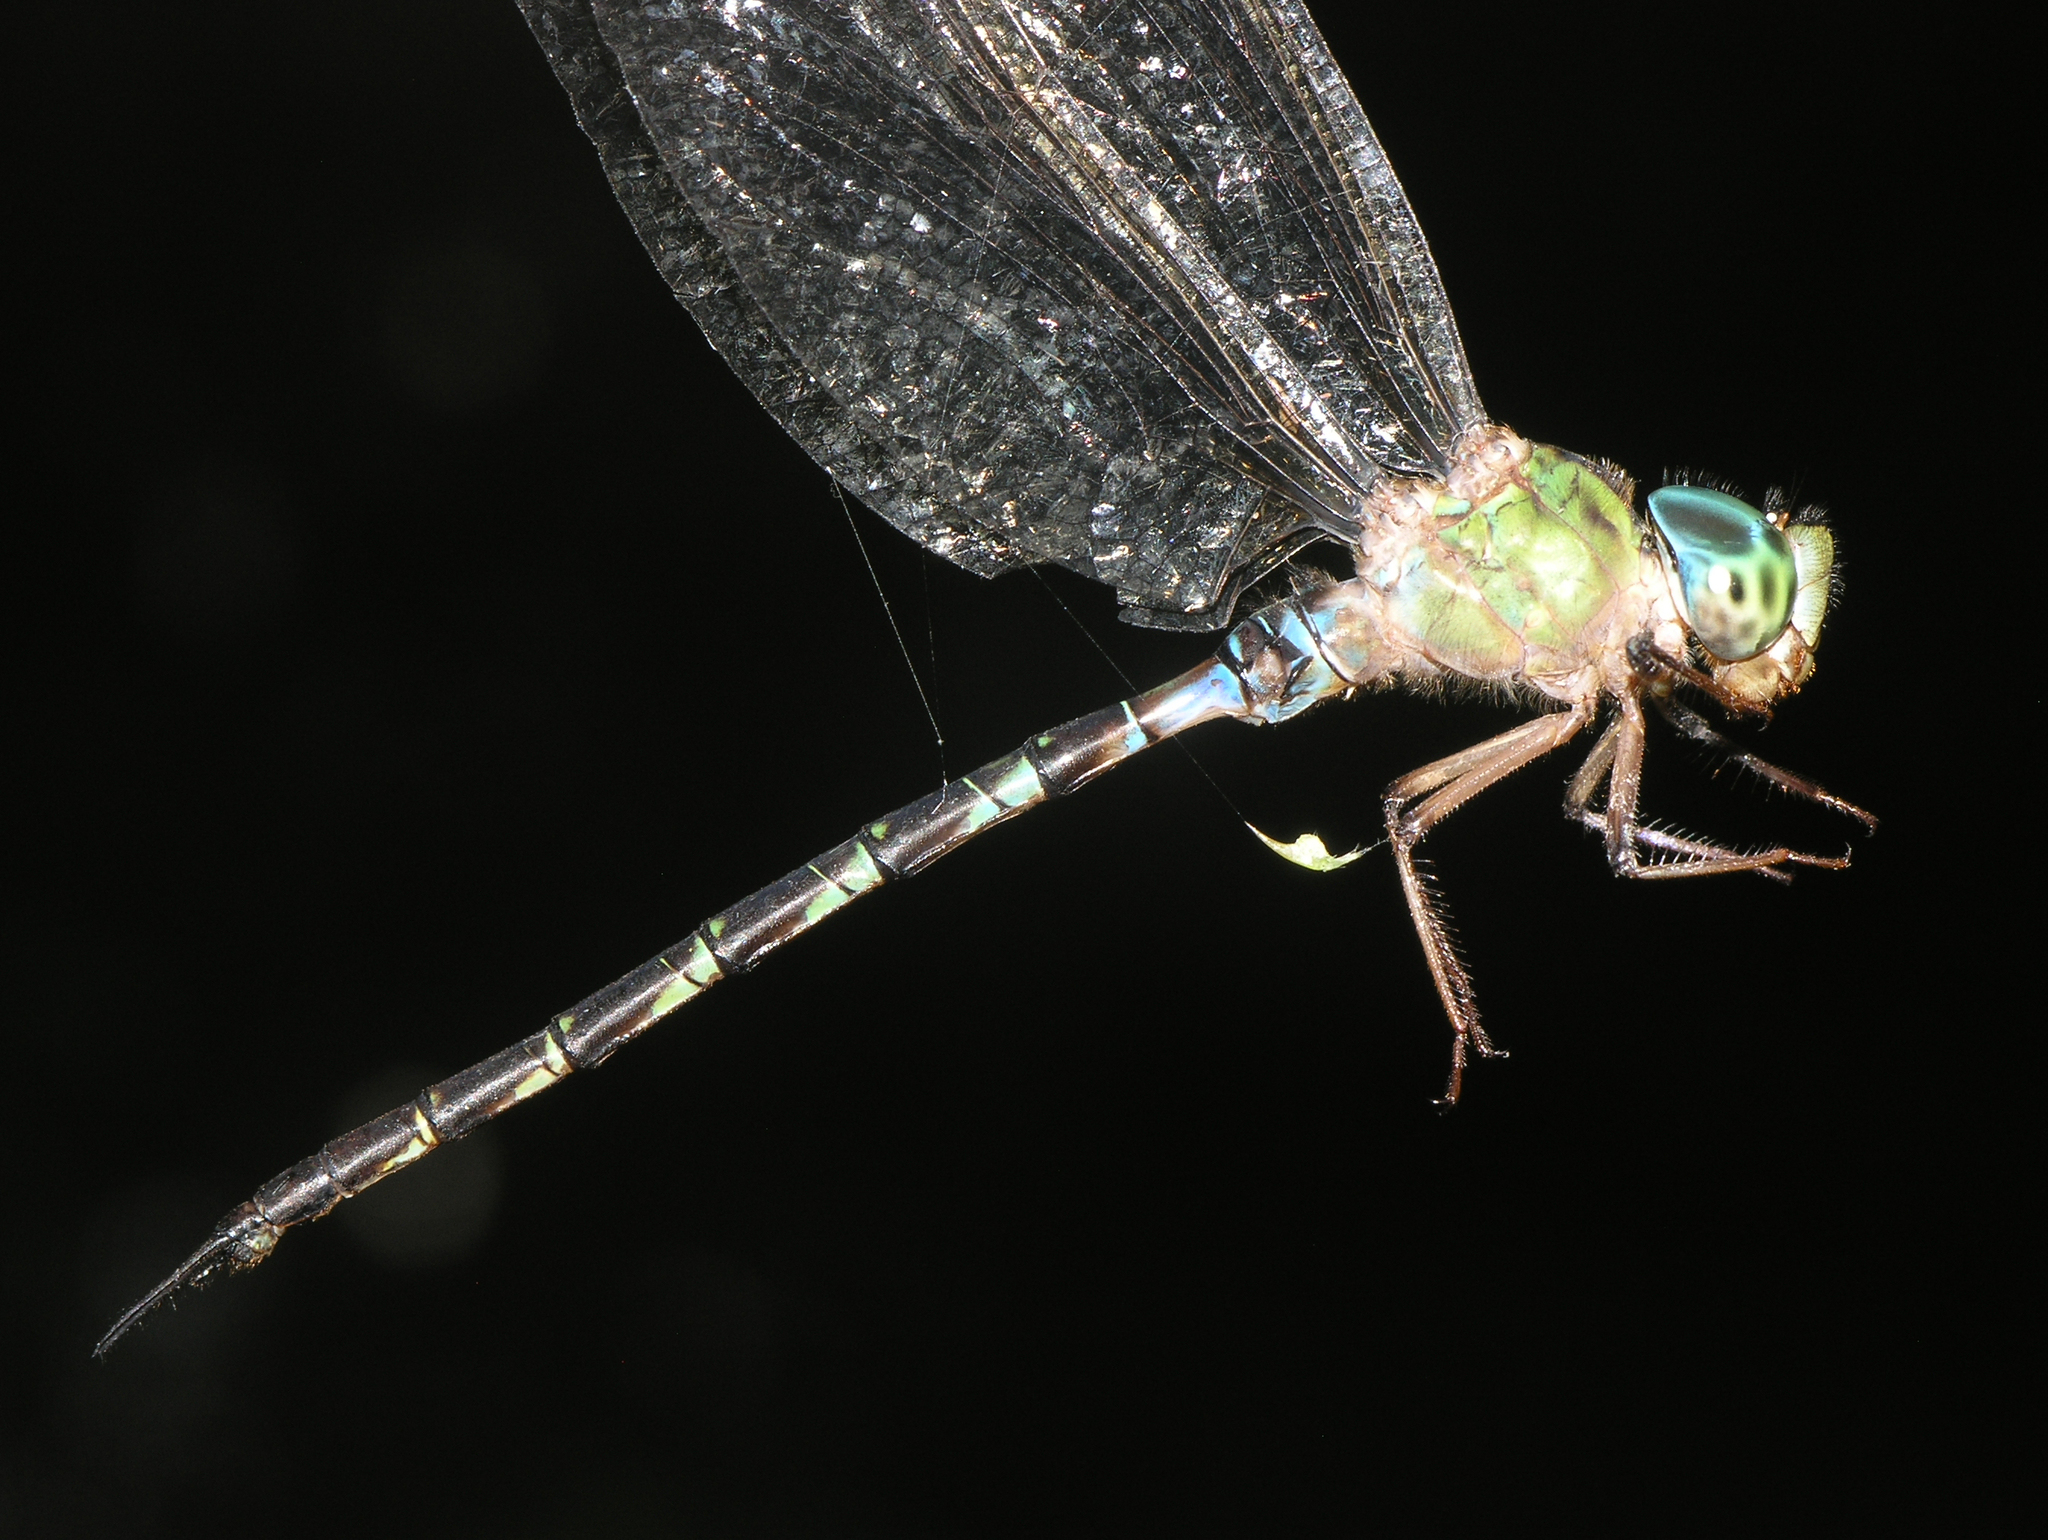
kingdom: Animalia
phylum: Arthropoda
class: Insecta
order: Odonata
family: Aeshnidae
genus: Gynacantha
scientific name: Gynacantha subinterrupta
